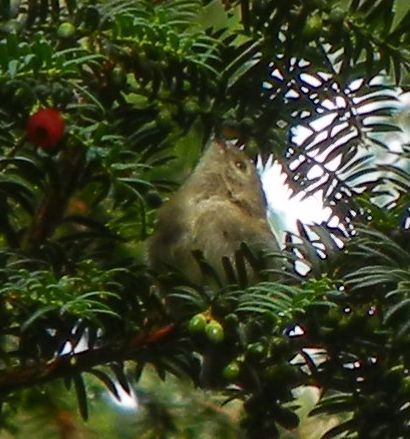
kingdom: Animalia
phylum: Chordata
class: Aves
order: Passeriformes
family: Regulidae
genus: Regulus
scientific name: Regulus regulus
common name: Goldcrest
